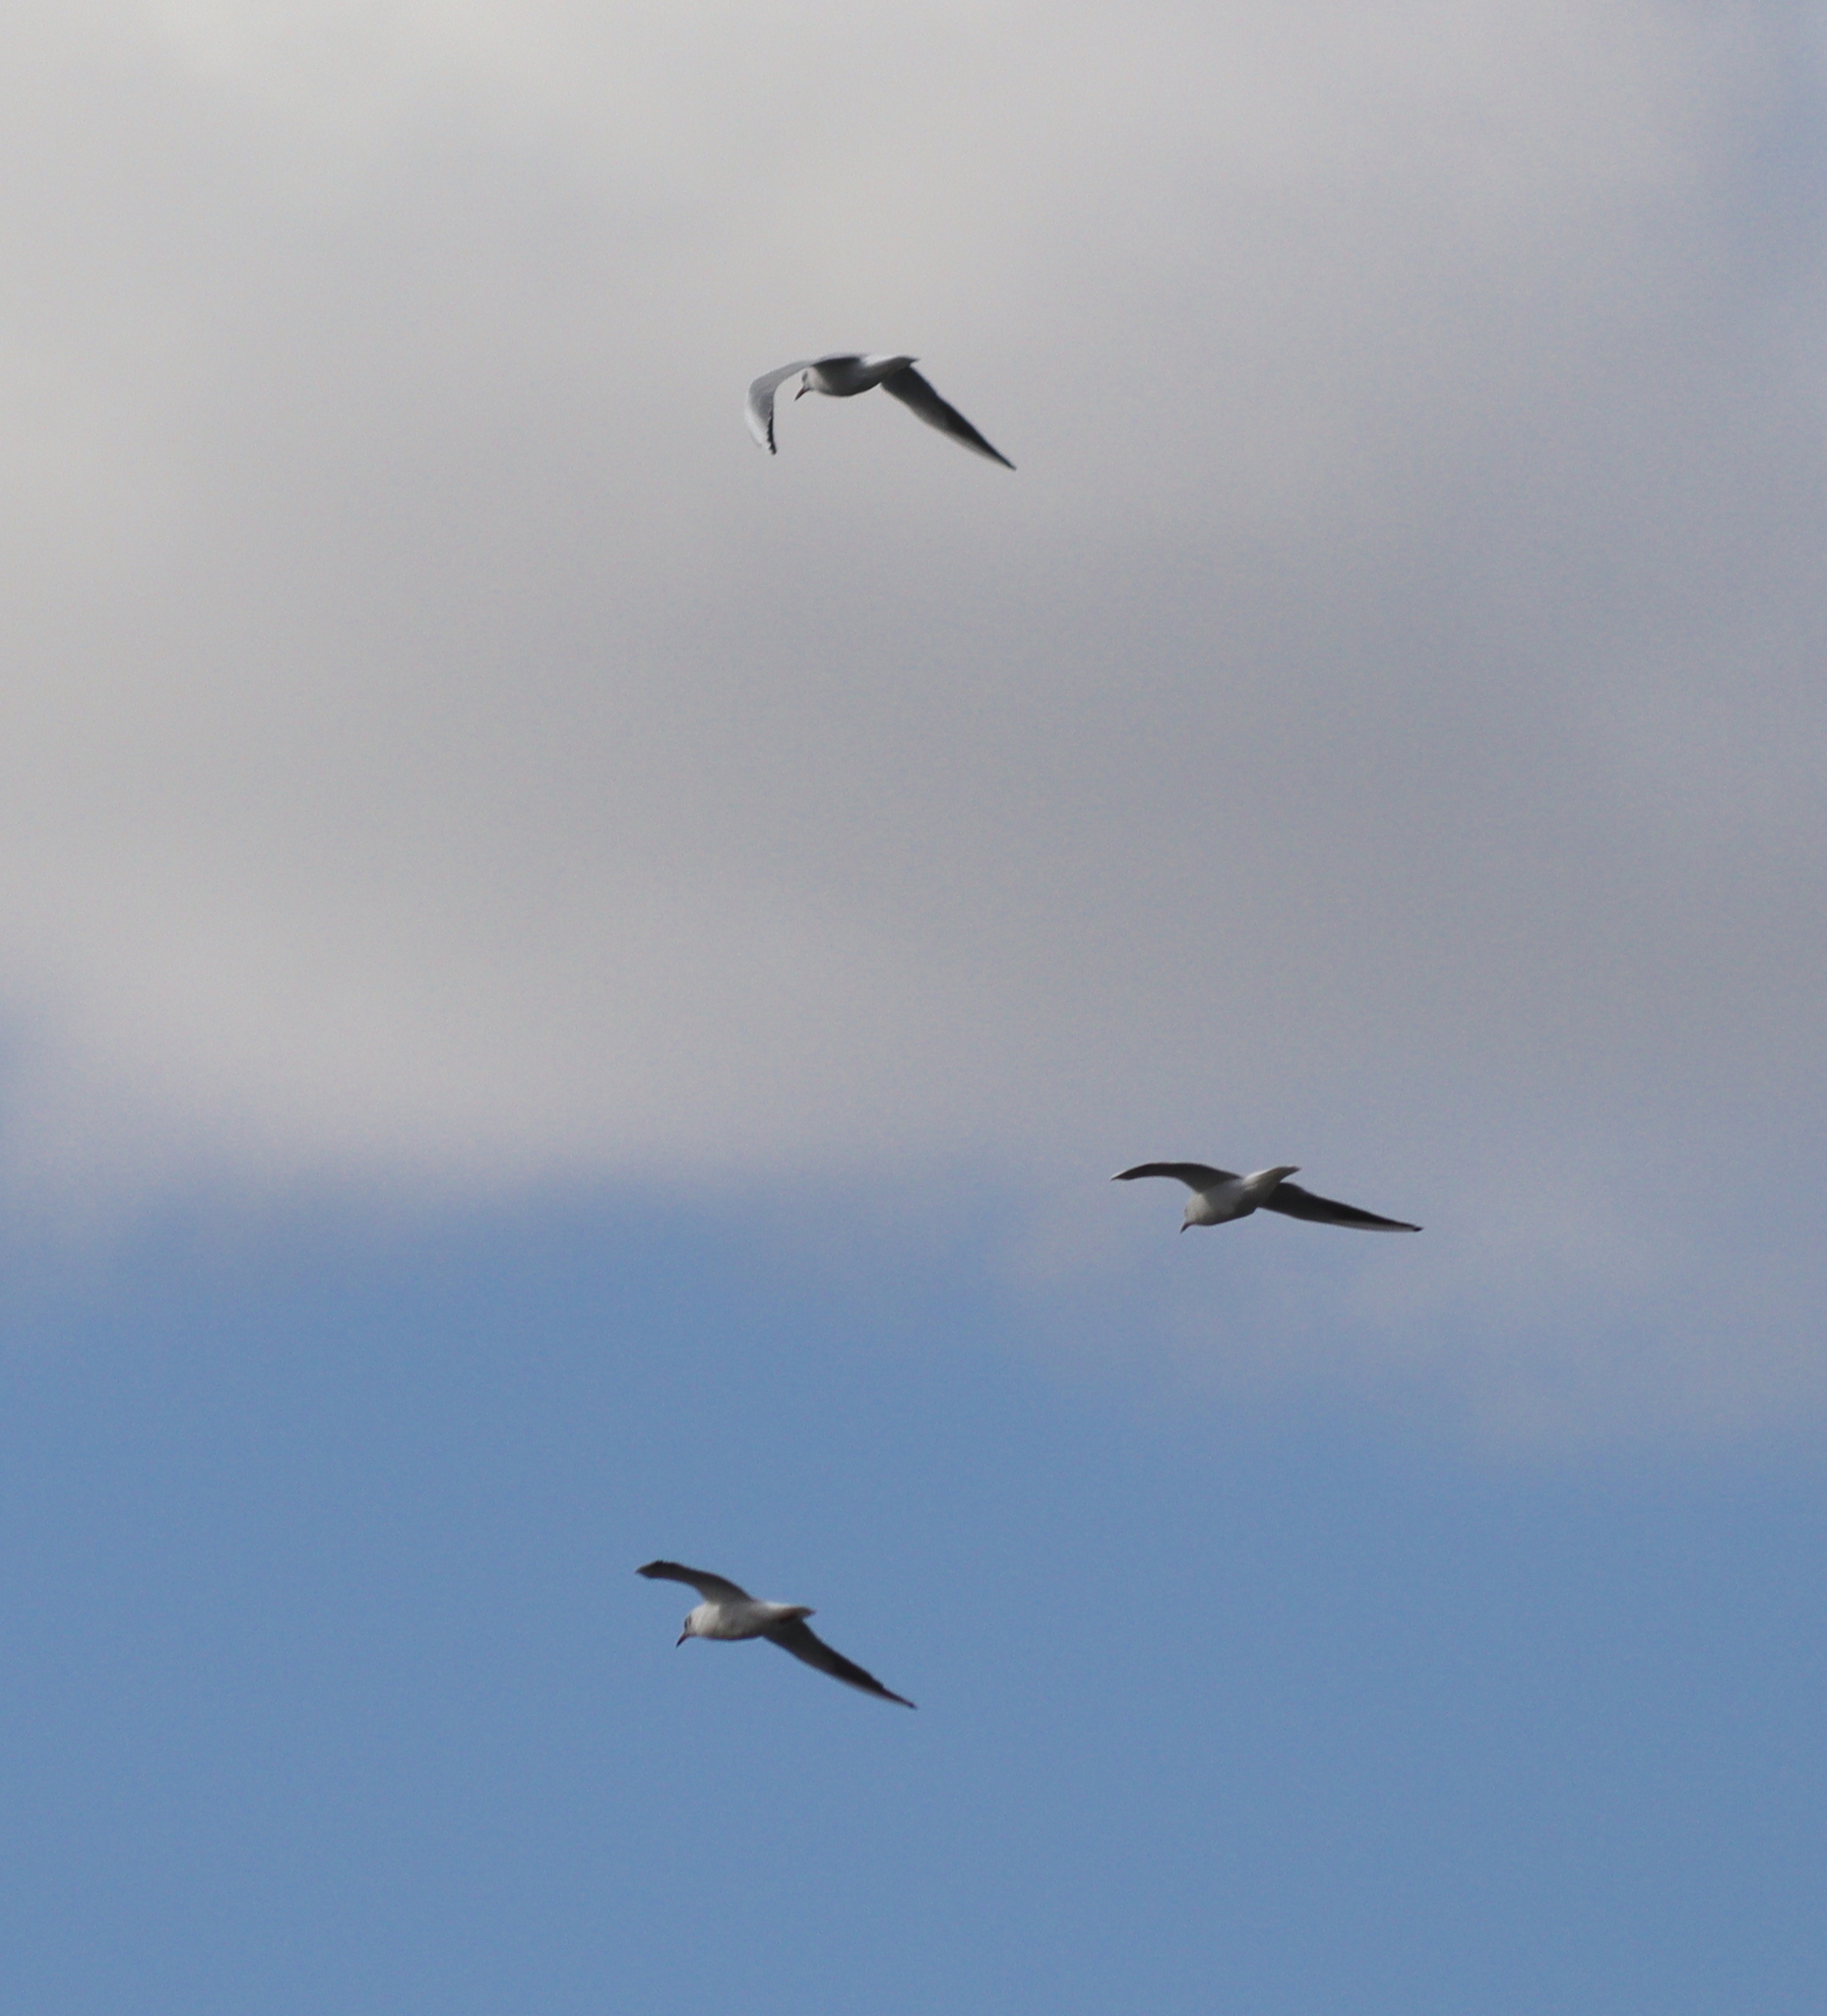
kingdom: Animalia
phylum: Chordata
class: Aves
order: Charadriiformes
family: Laridae
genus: Chroicocephalus
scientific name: Chroicocephalus ridibundus
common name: Black-headed gull
